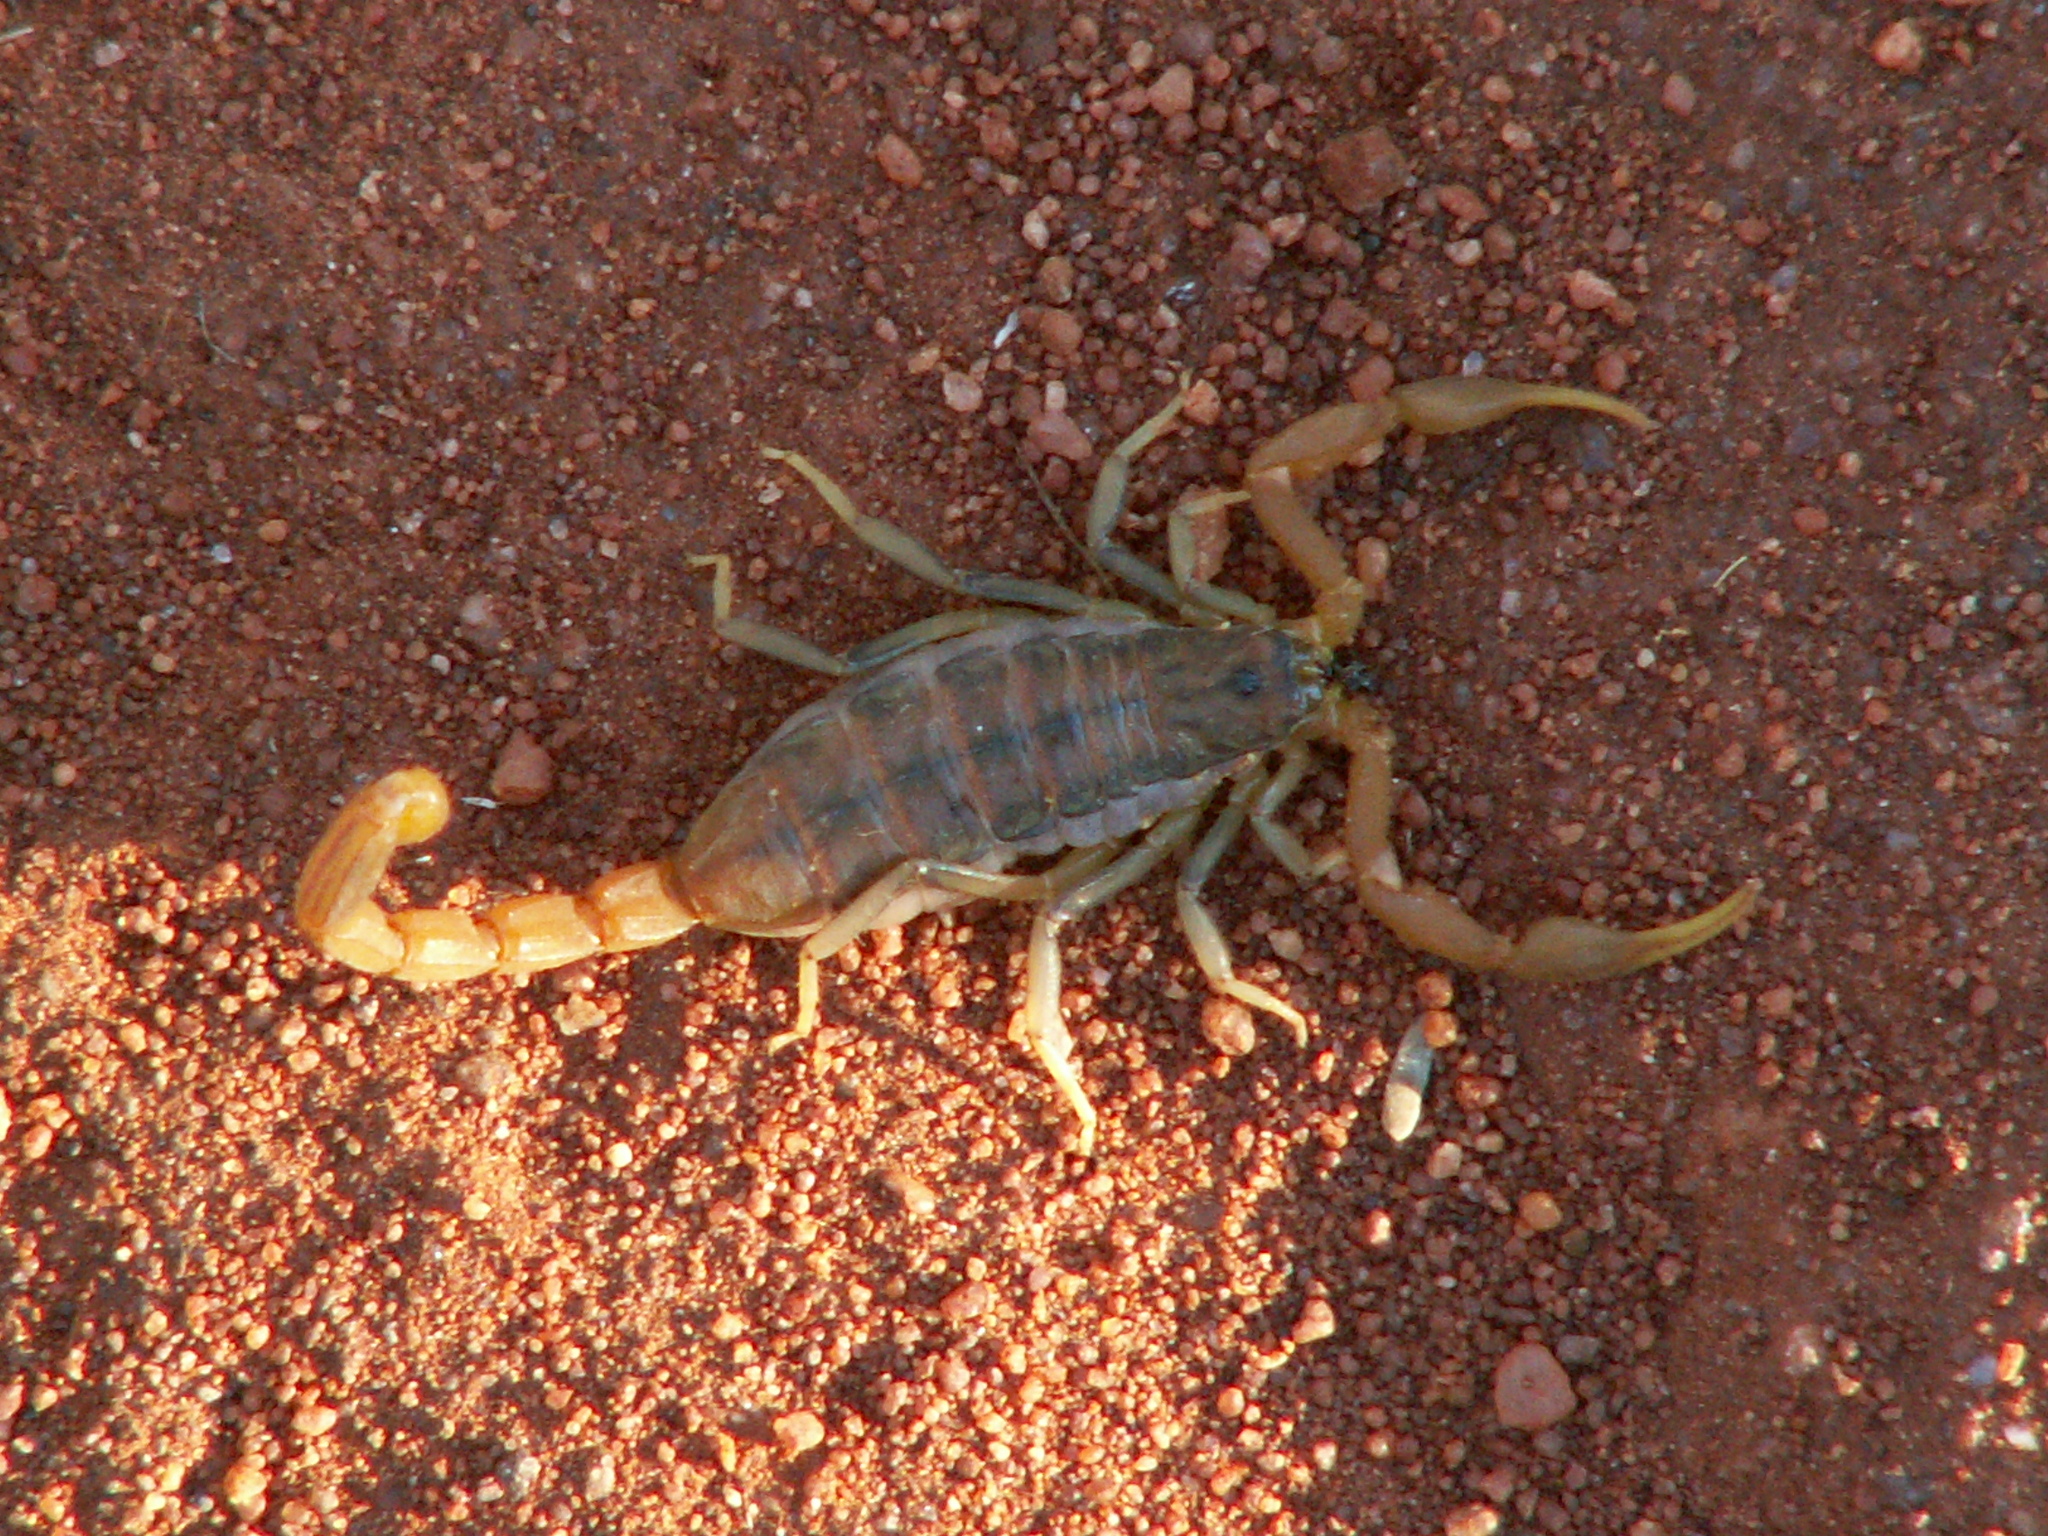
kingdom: Animalia
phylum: Arthropoda
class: Arachnida
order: Scorpiones
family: Buthidae
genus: Uroplectes
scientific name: Uroplectes planimanus
